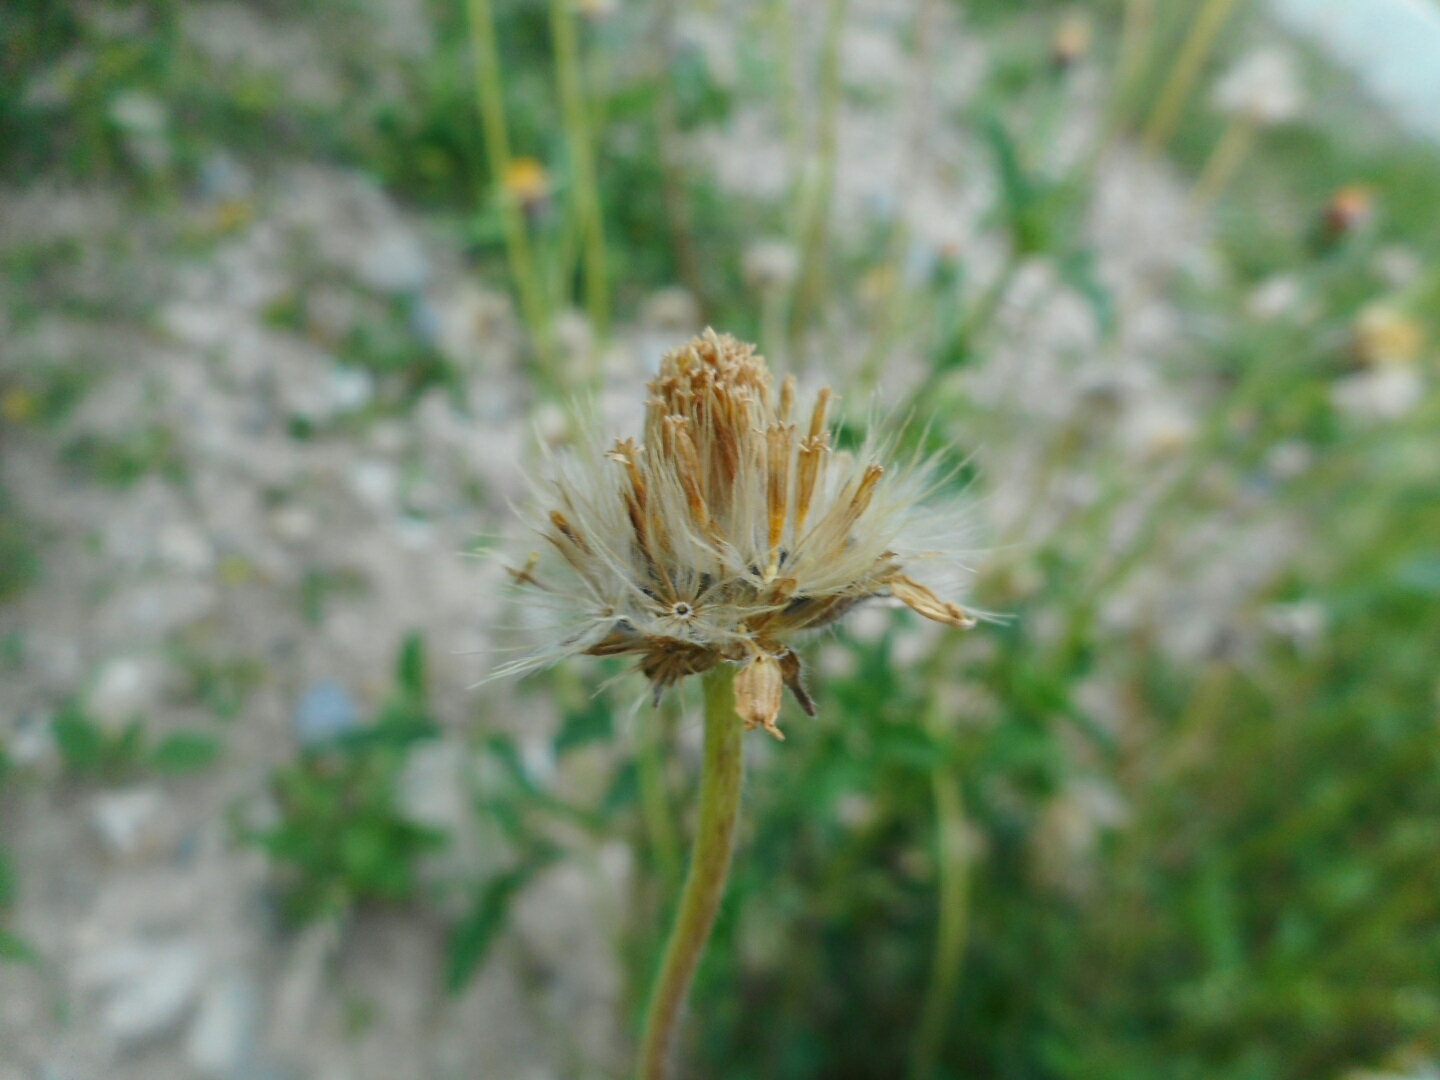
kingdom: Plantae
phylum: Tracheophyta
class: Magnoliopsida
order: Asterales
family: Asteraceae
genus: Tridax
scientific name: Tridax procumbens
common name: Coatbuttons
